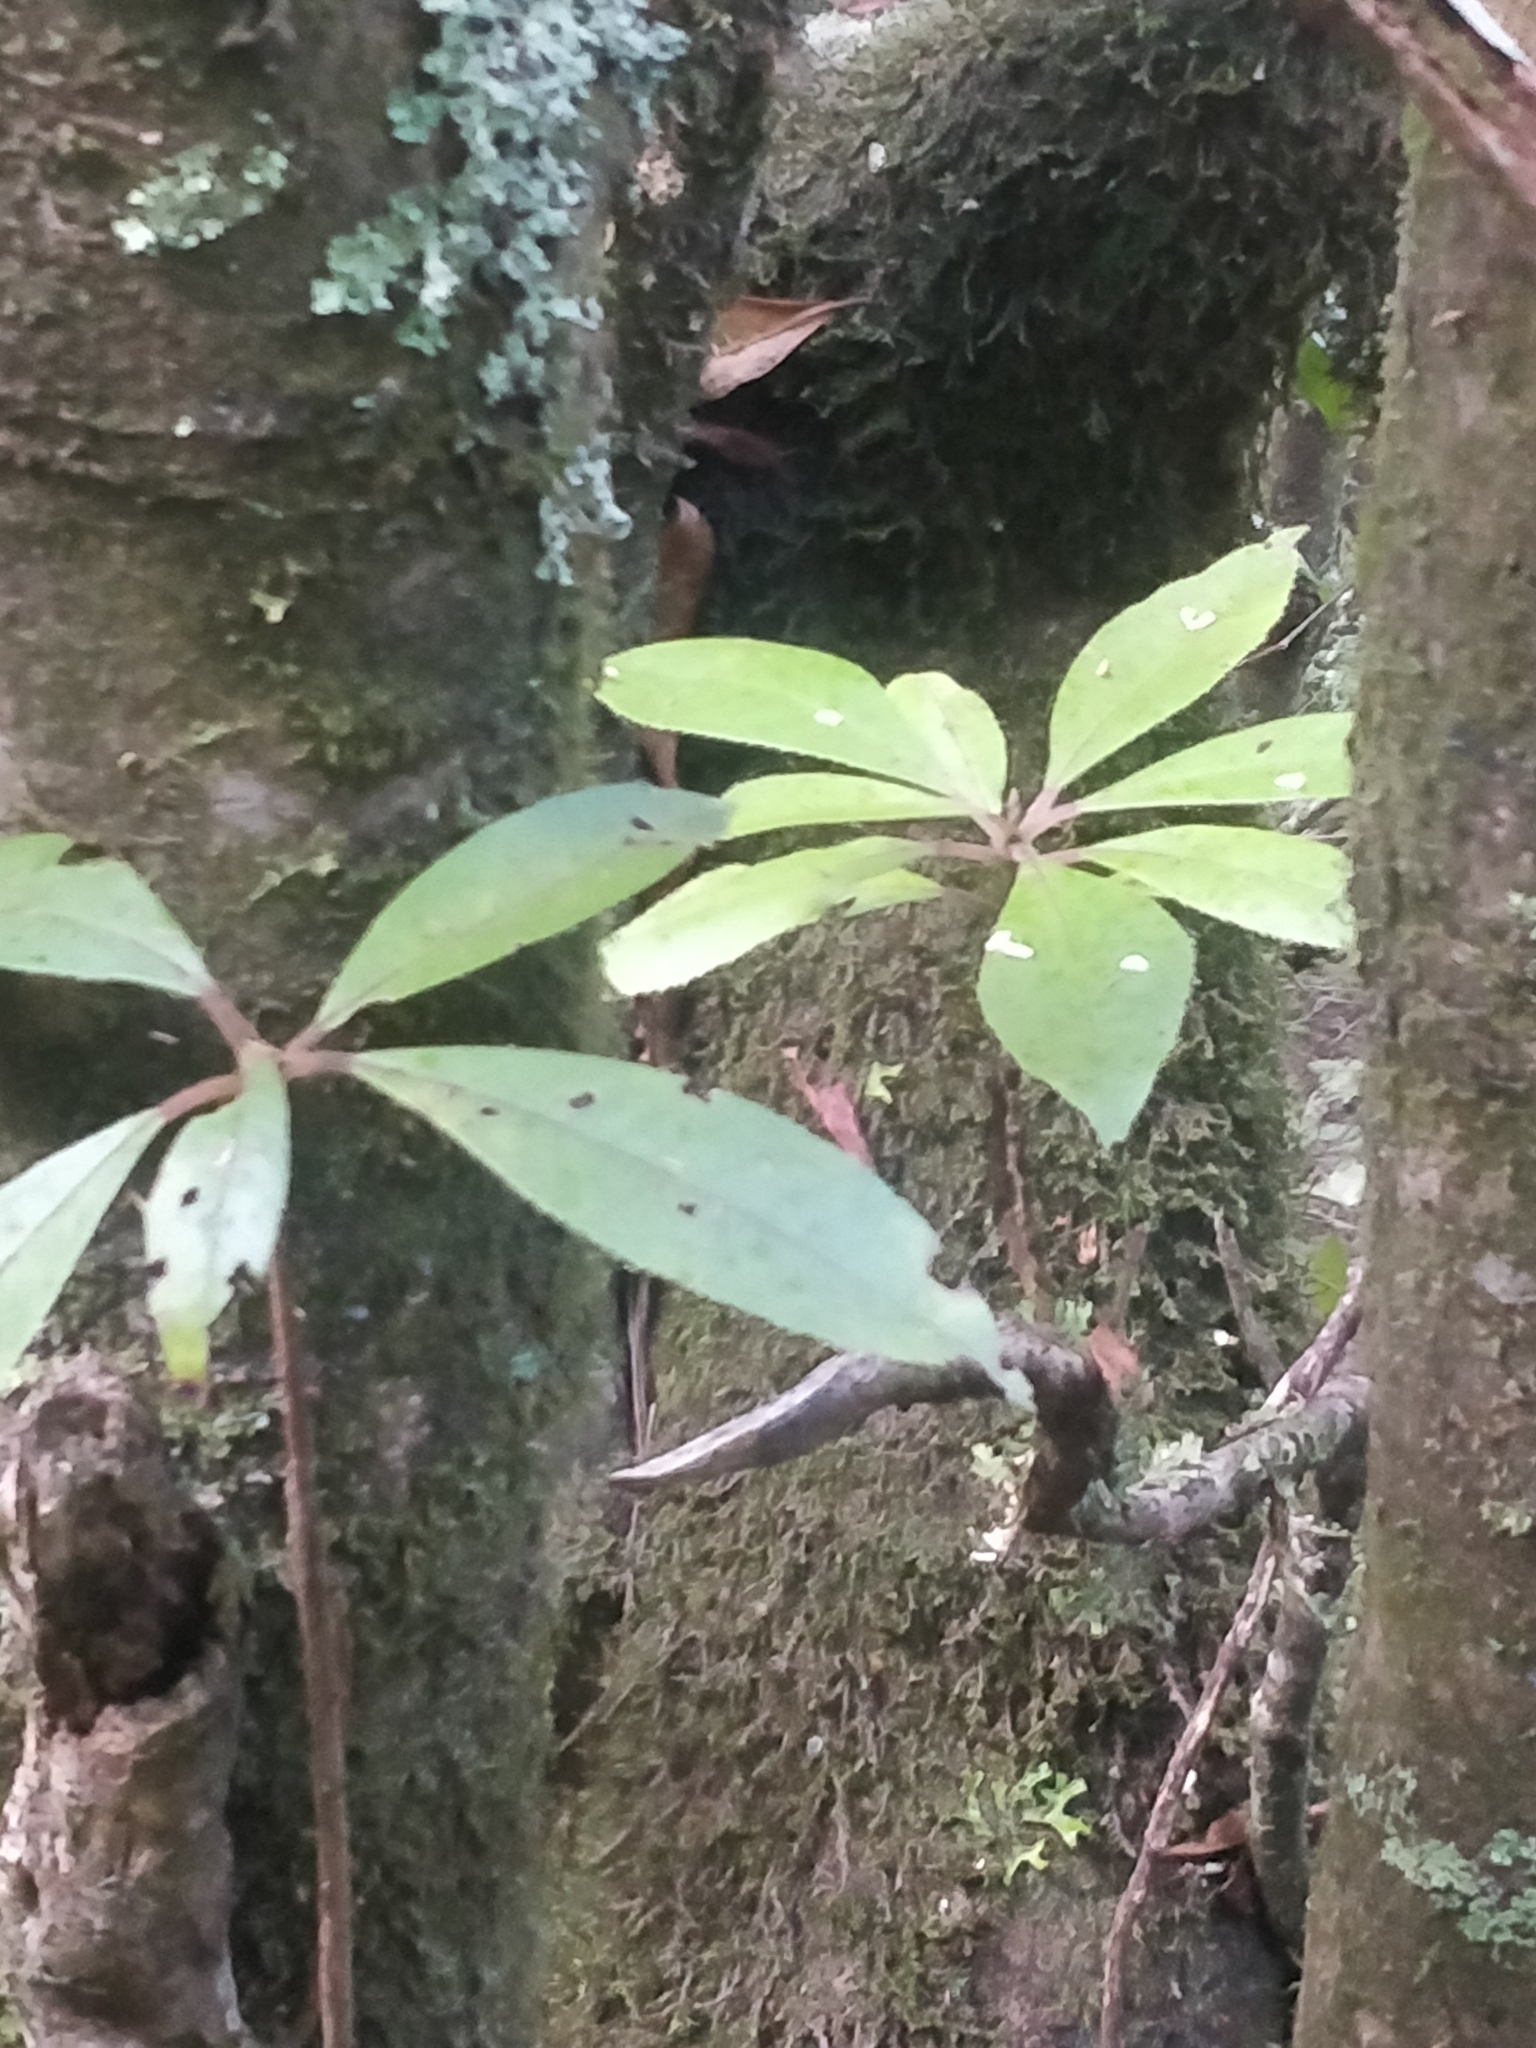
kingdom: Plantae
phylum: Tracheophyta
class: Magnoliopsida
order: Ericales
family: Clethraceae
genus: Clethra
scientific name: Clethra arborea
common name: Lily-of-the-valley-tree
